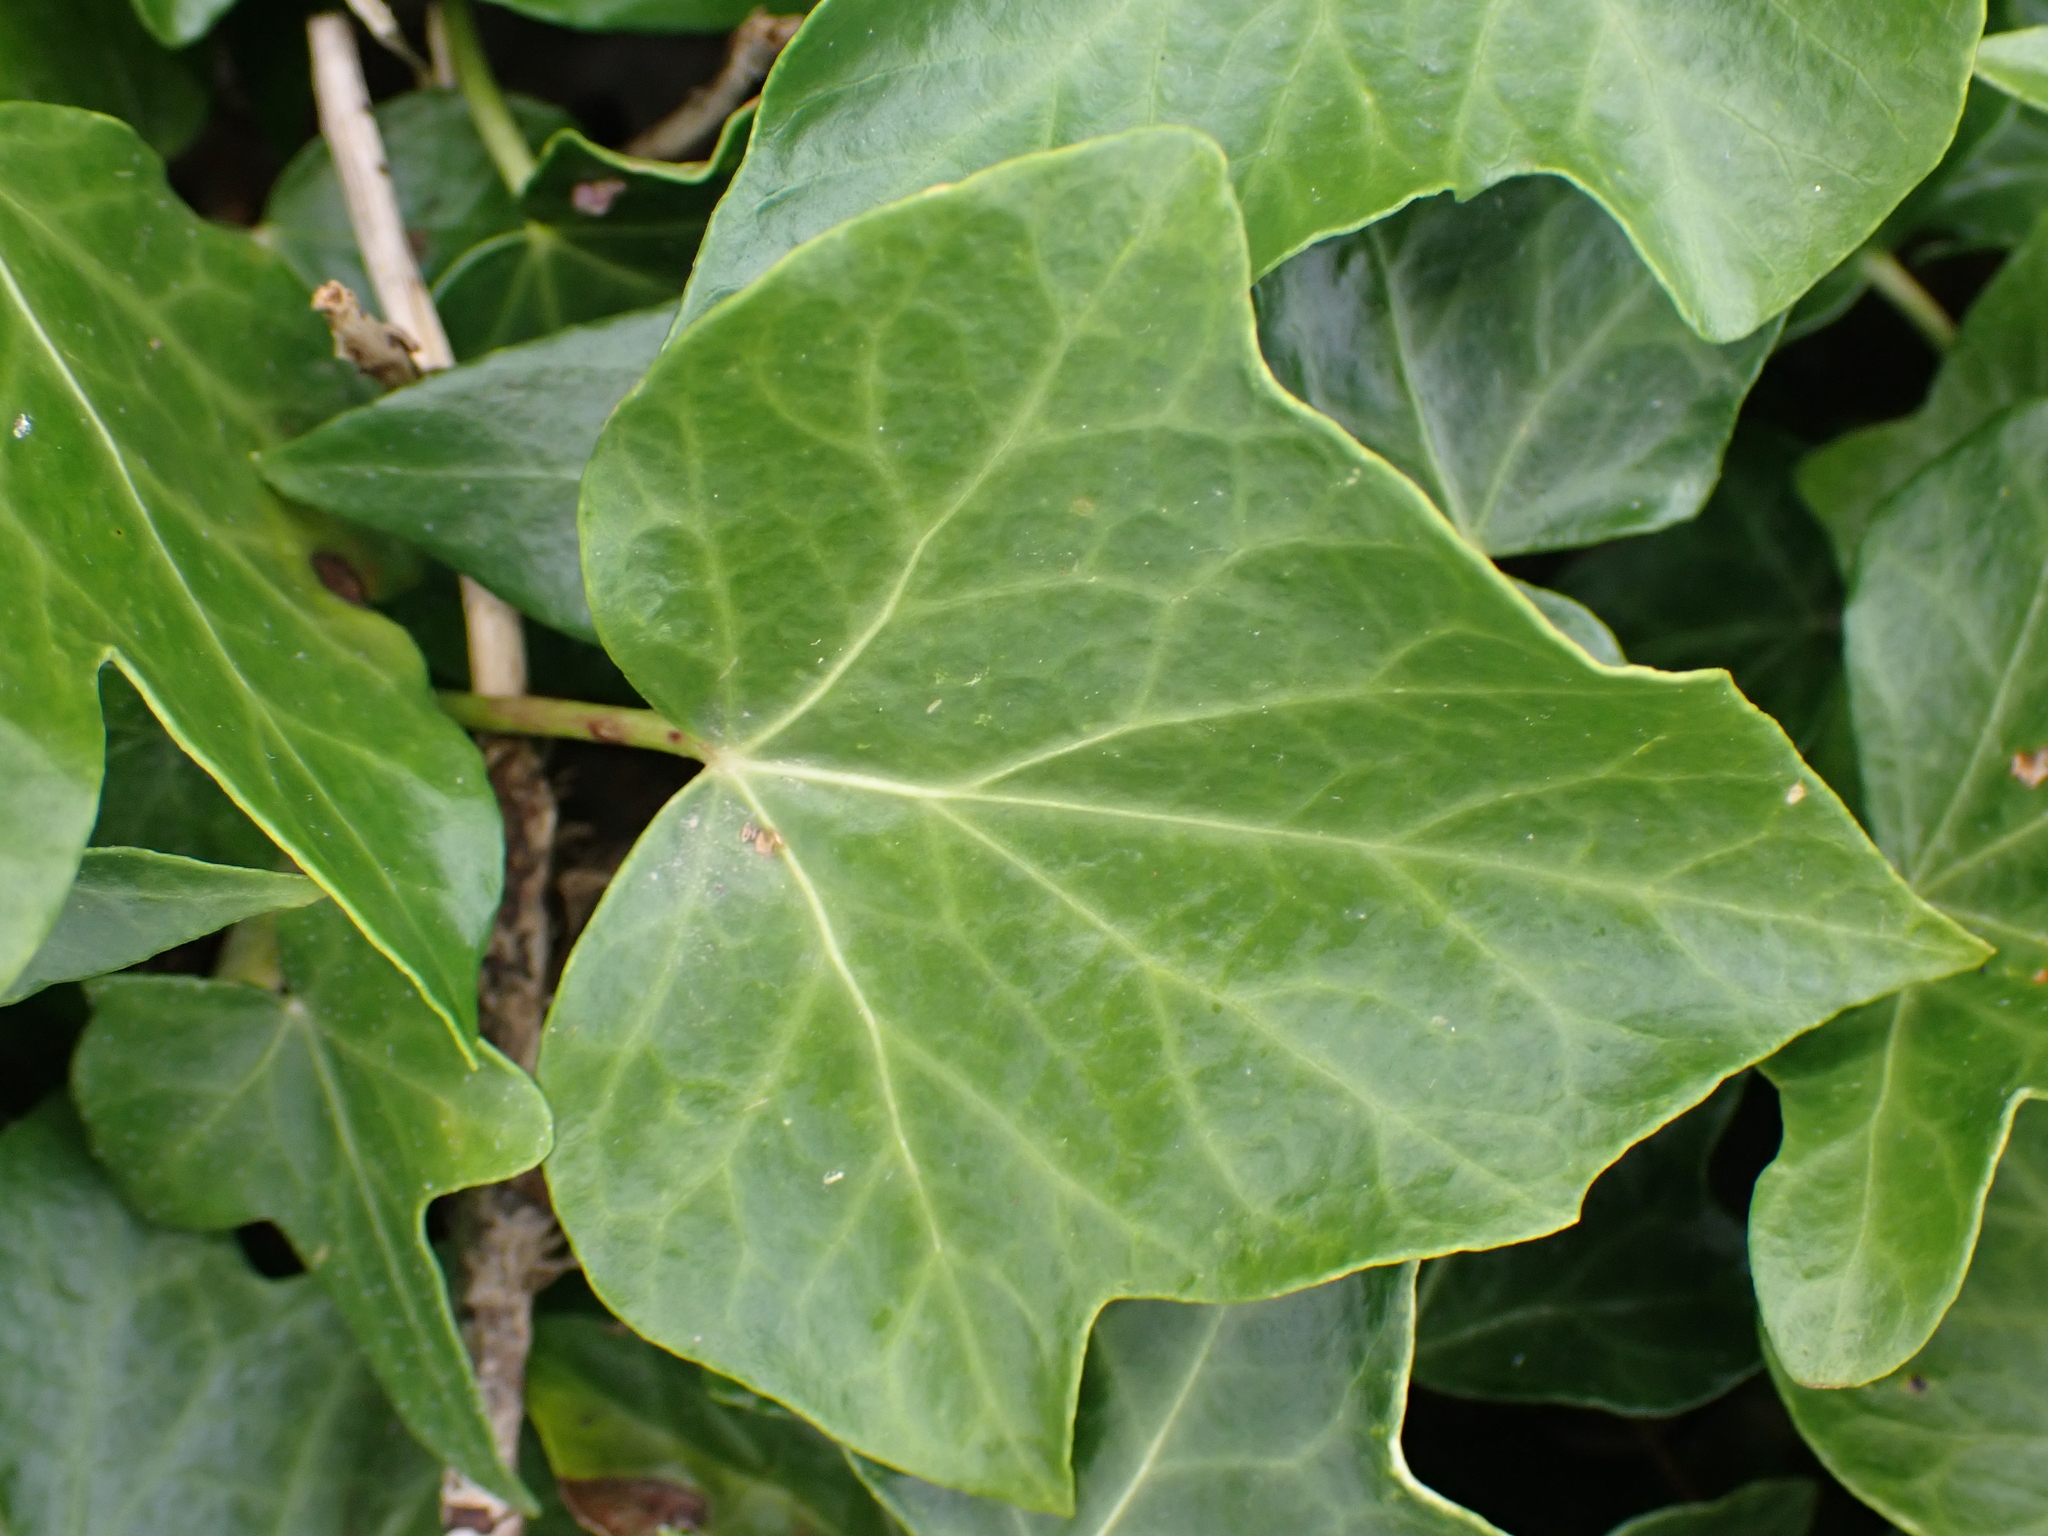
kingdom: Plantae
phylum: Tracheophyta
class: Magnoliopsida
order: Apiales
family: Araliaceae
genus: Hedera
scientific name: Hedera helix
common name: Ivy
